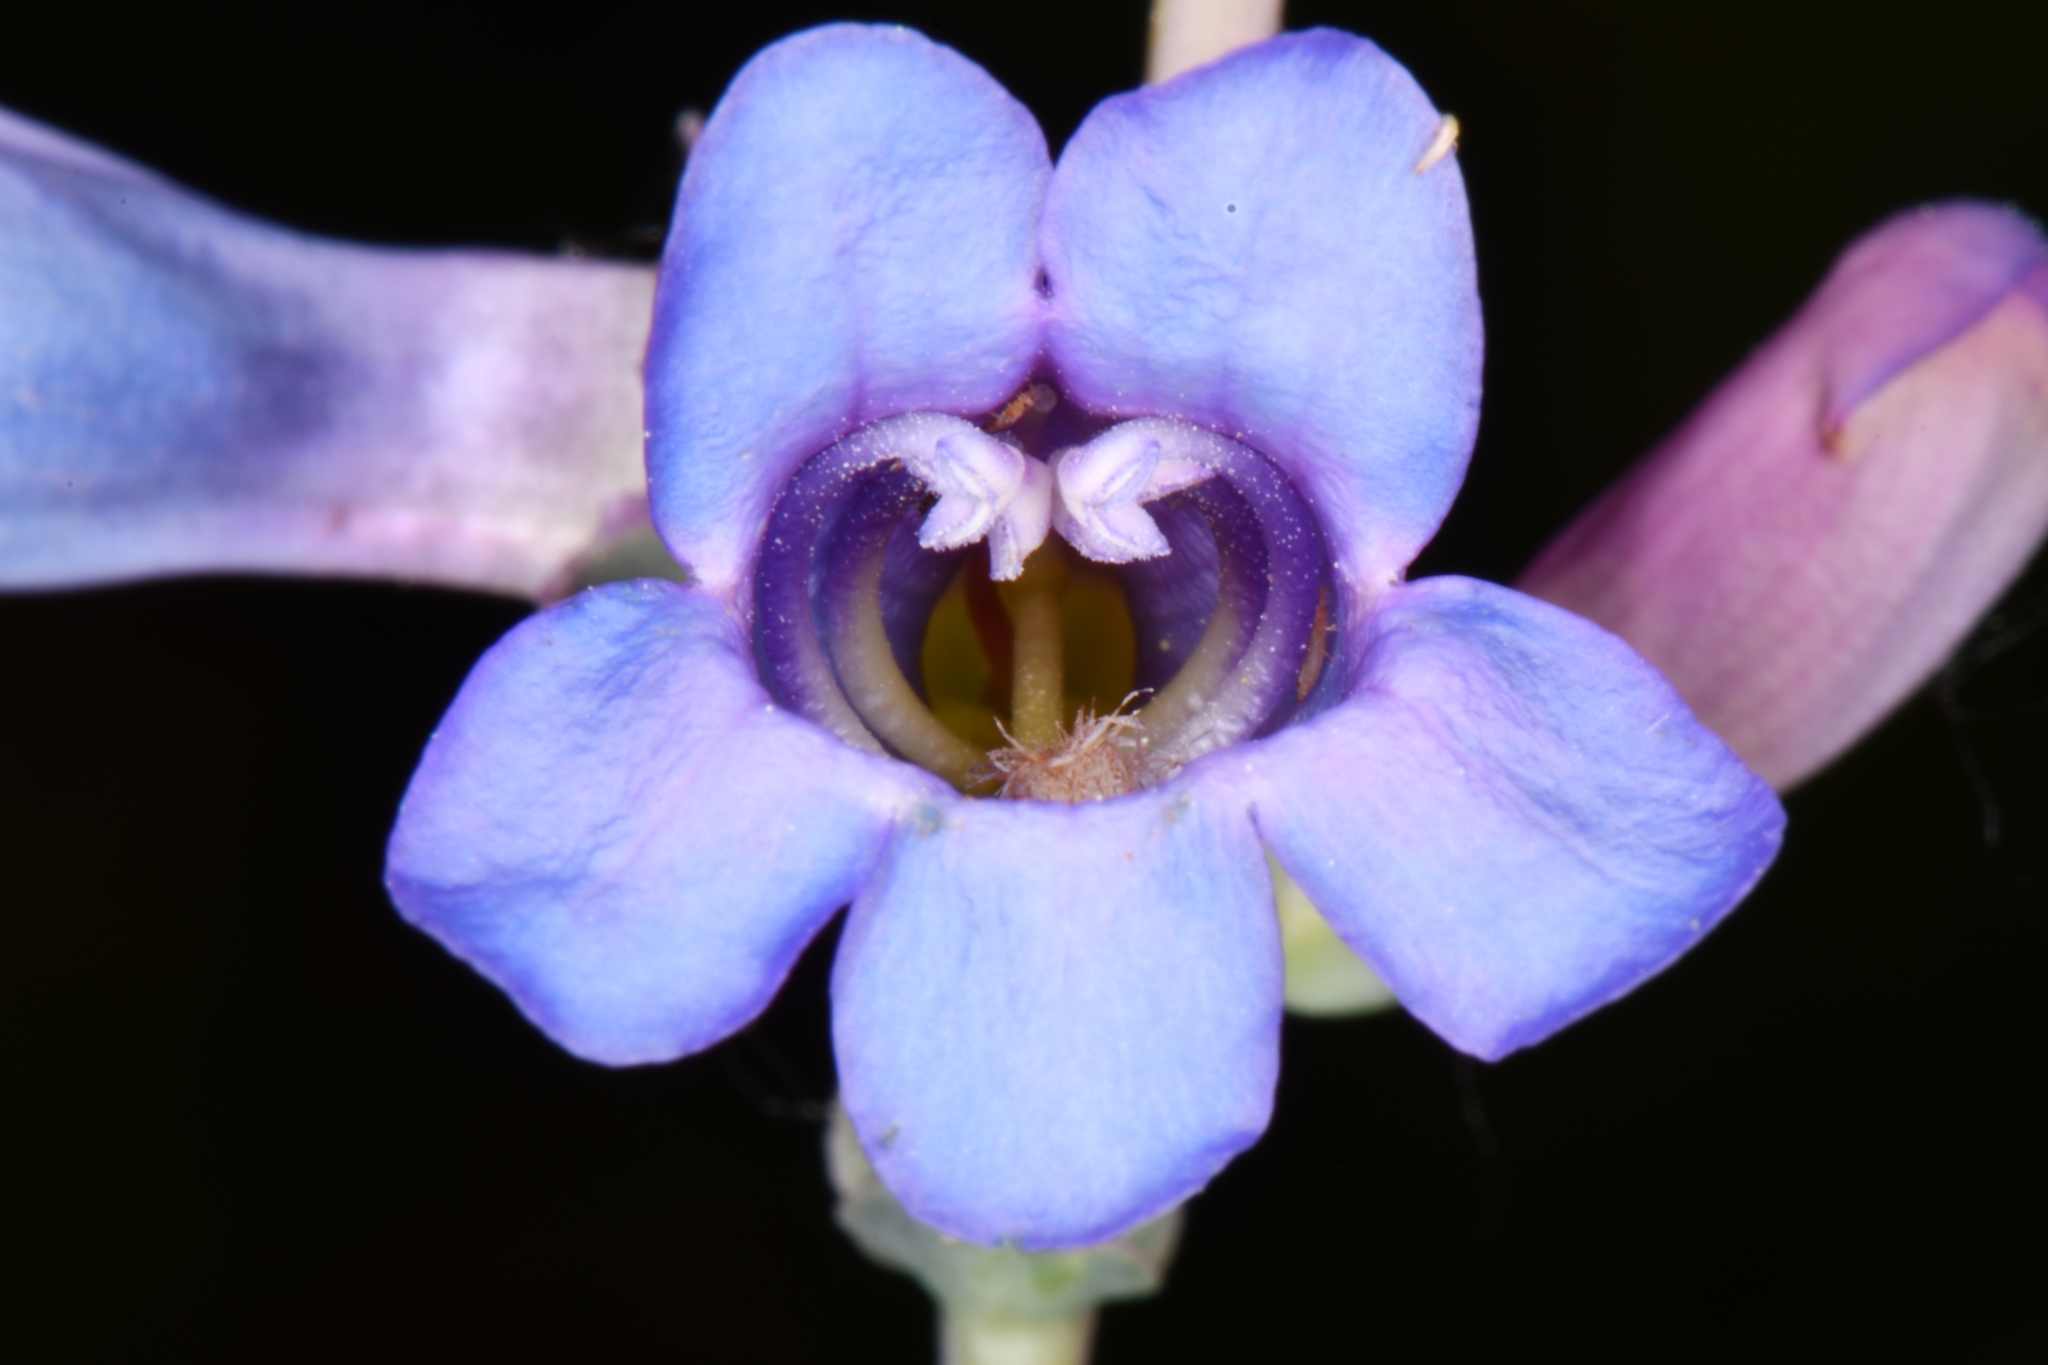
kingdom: Plantae
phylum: Tracheophyta
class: Magnoliopsida
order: Lamiales
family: Plantaginaceae
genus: Penstemon
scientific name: Penstemon pachyphyllus
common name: Thick-leaf penstemon
